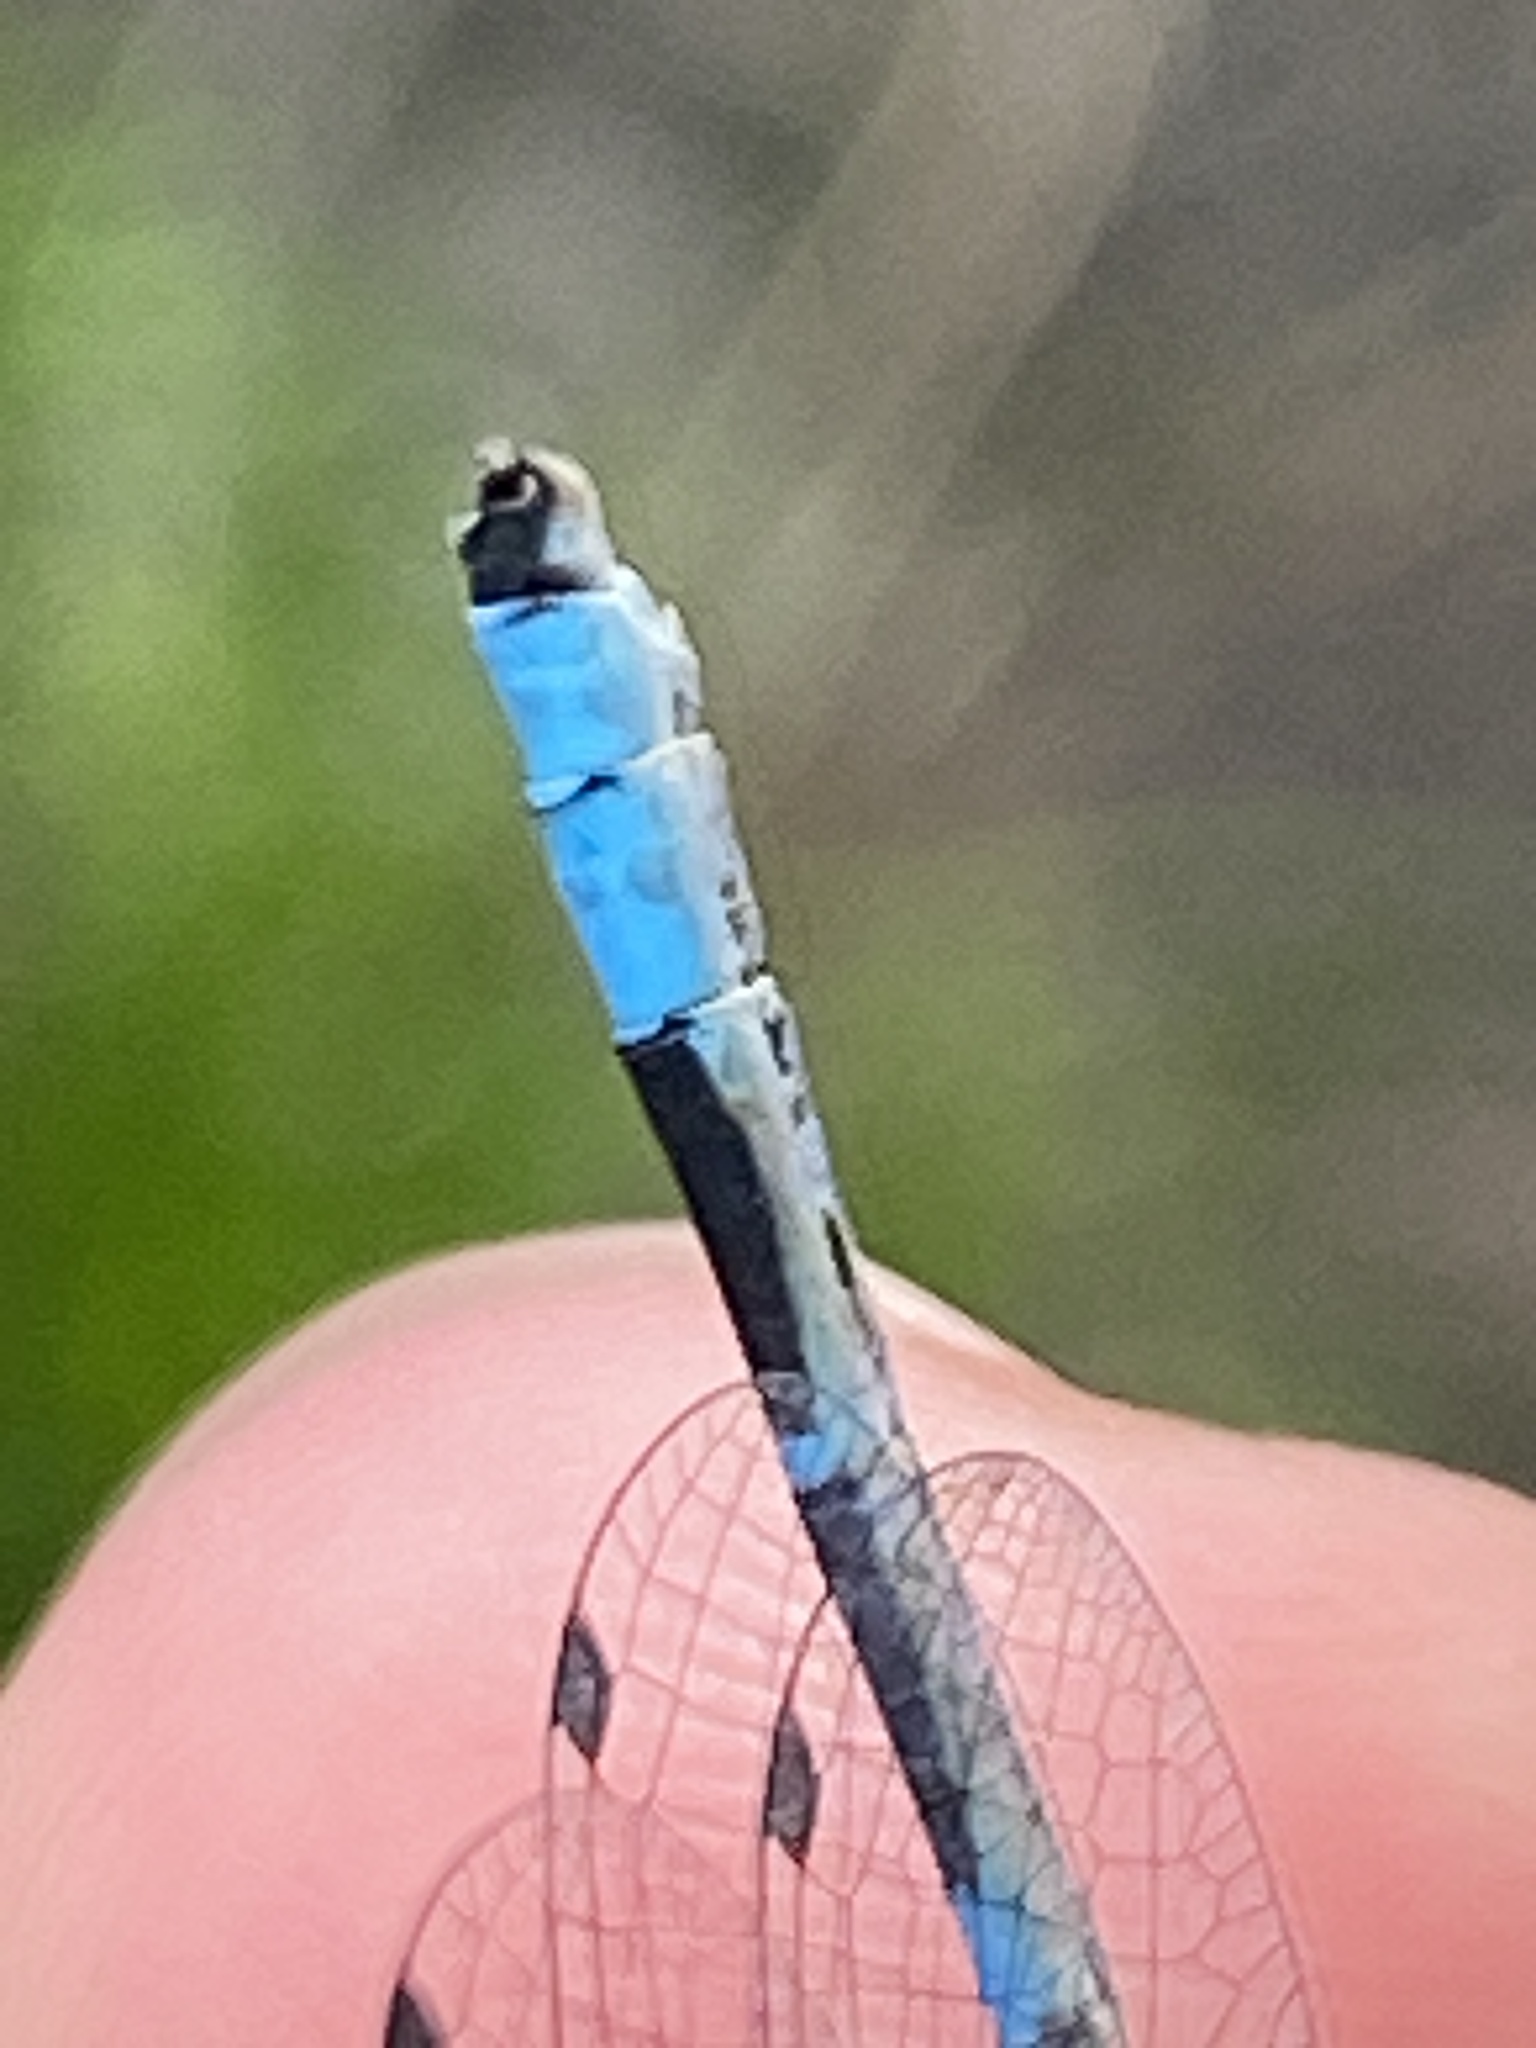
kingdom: Animalia
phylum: Arthropoda
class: Insecta
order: Odonata
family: Coenagrionidae
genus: Enallagma
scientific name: Enallagma carunculatum
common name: Tule bluet
